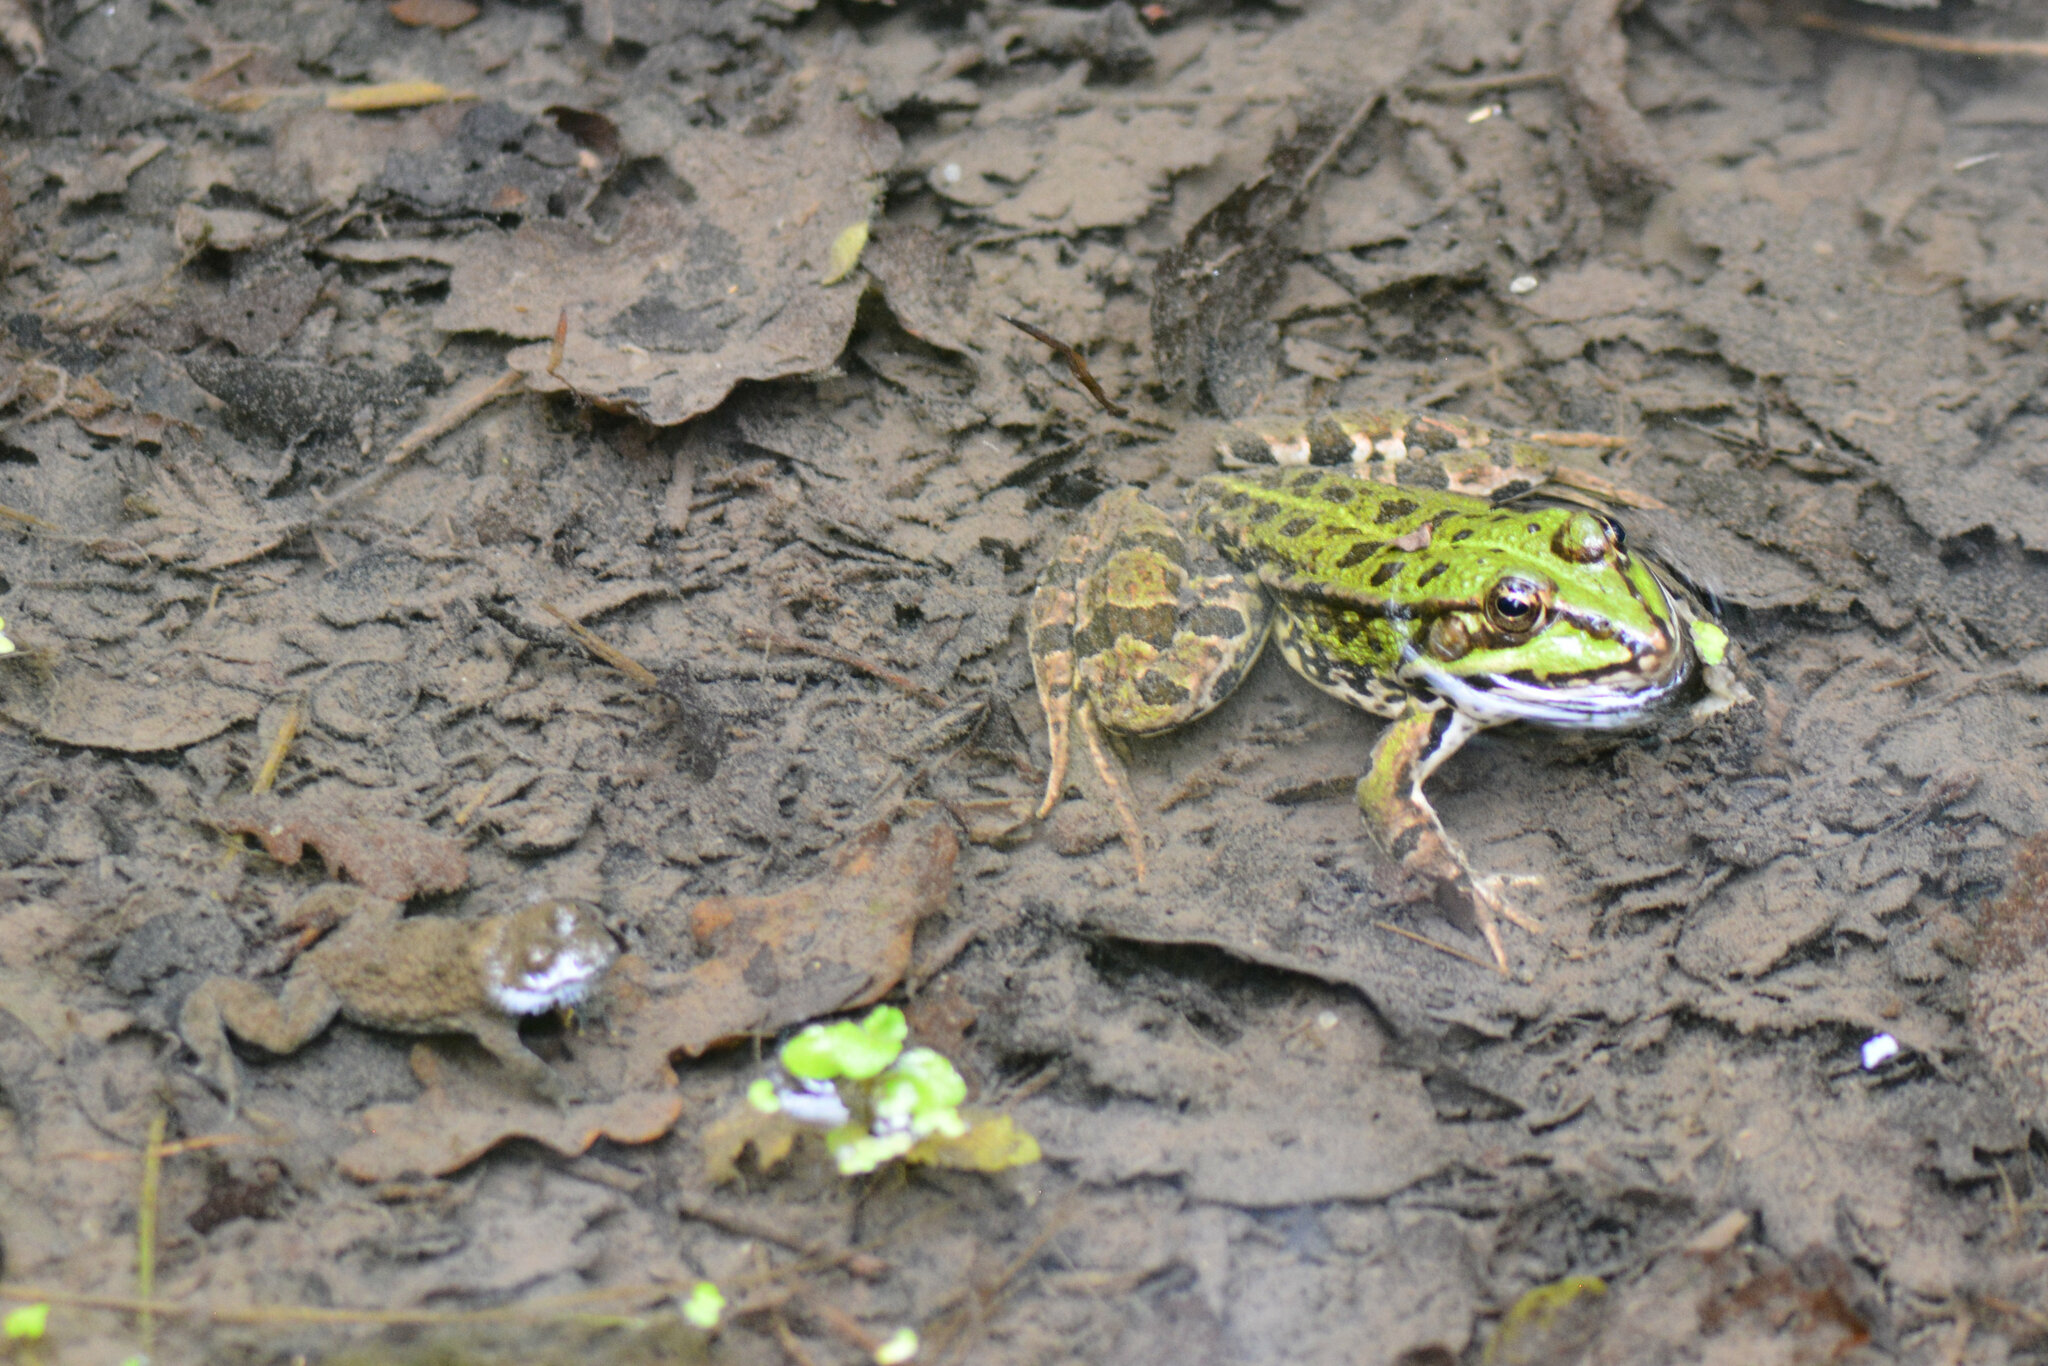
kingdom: Animalia
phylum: Chordata
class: Amphibia
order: Anura
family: Bombinatoridae
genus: Bombina
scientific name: Bombina variegata
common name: Yellow-bellied toad
